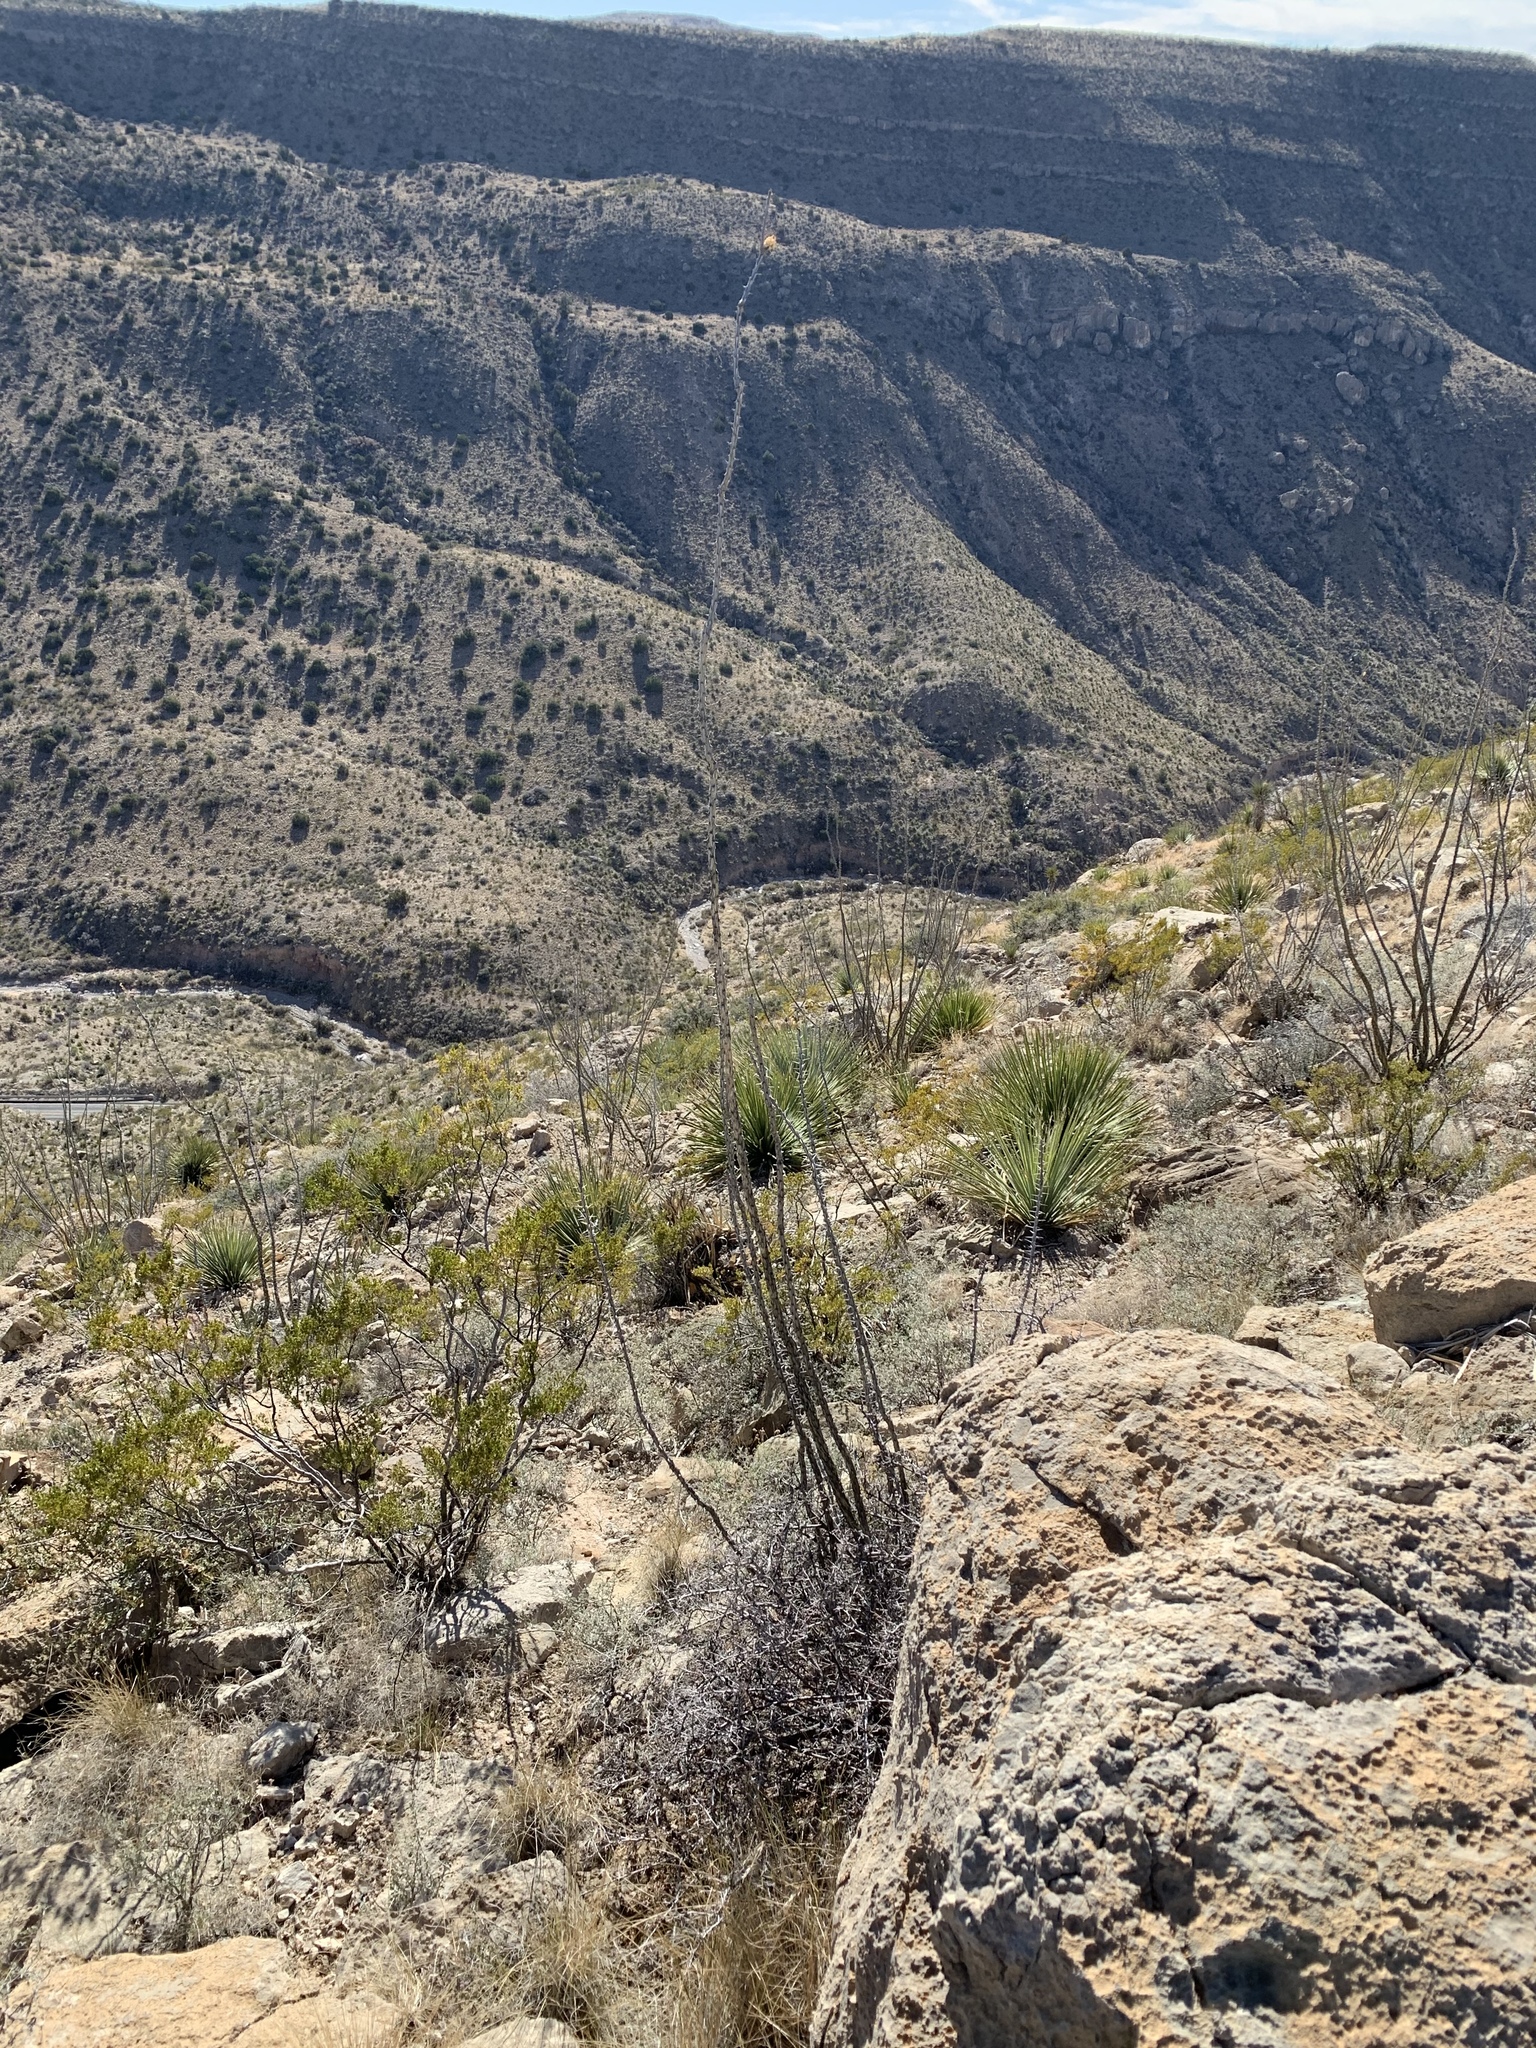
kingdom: Plantae
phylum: Tracheophyta
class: Magnoliopsida
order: Ericales
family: Fouquieriaceae
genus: Fouquieria
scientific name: Fouquieria splendens
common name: Vine-cactus
